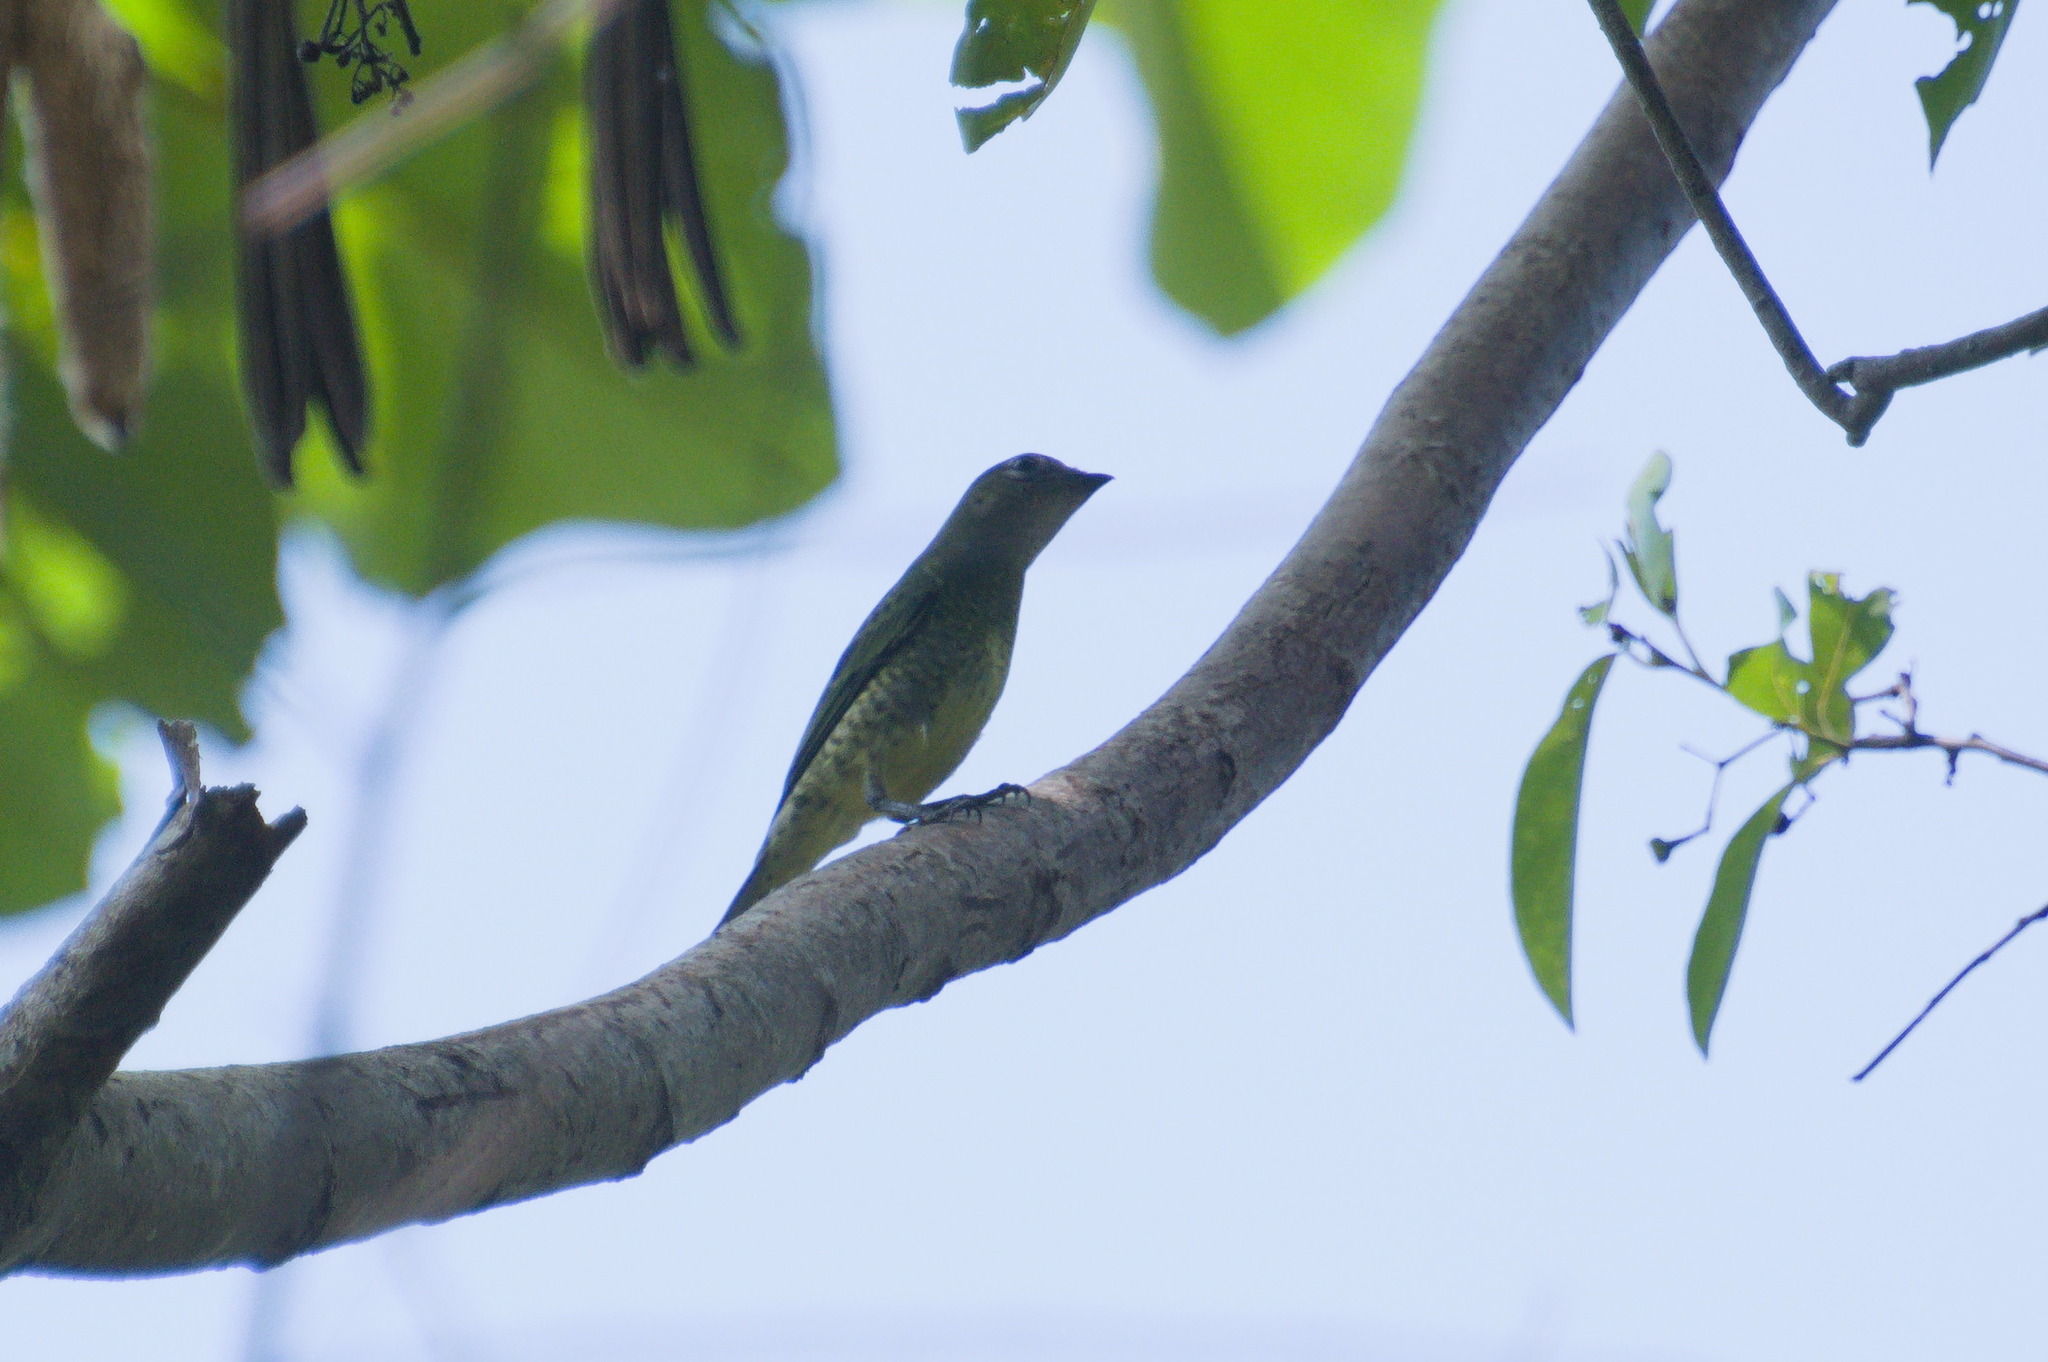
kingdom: Animalia
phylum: Chordata
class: Aves
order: Passeriformes
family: Thraupidae
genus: Tersina
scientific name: Tersina viridis
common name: Swallow tanager
